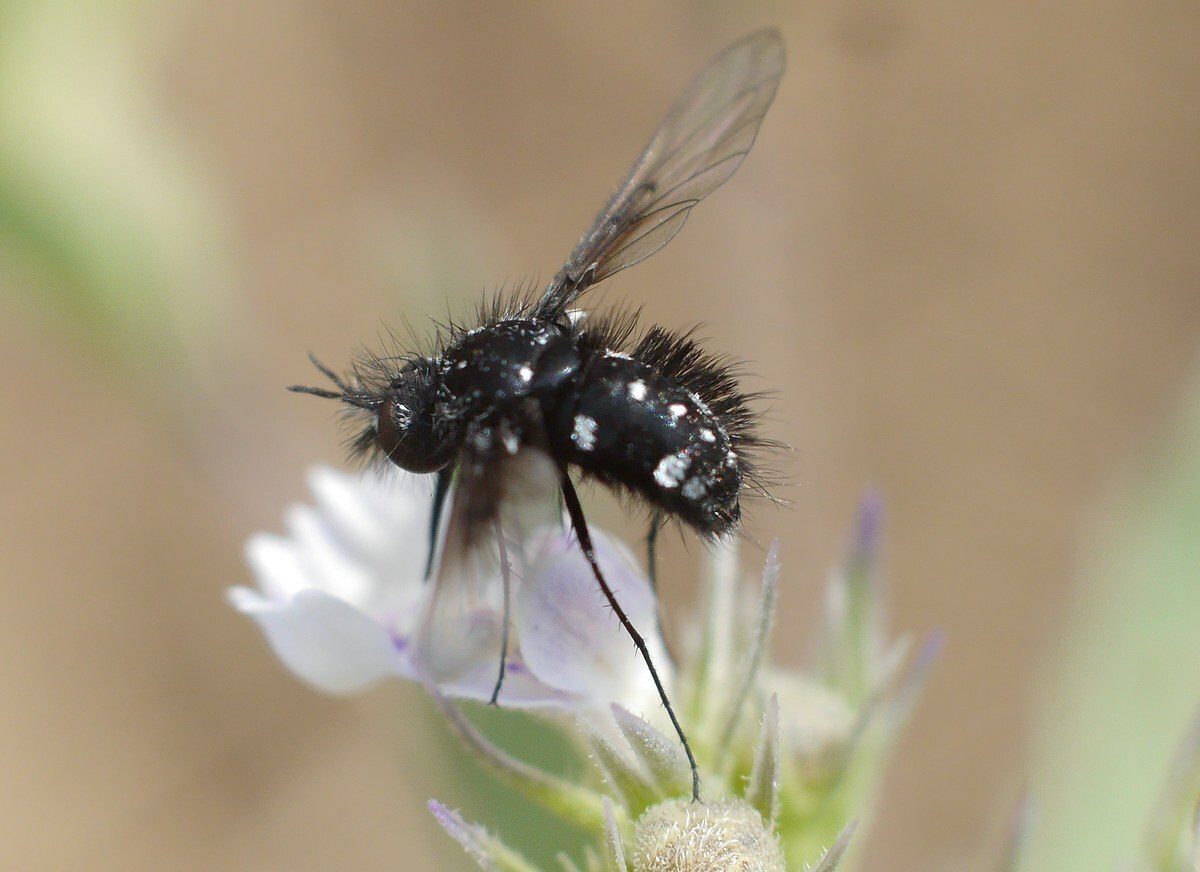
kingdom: Animalia
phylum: Arthropoda
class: Insecta
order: Diptera
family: Bombyliidae
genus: Bombylella
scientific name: Bombylella atra
